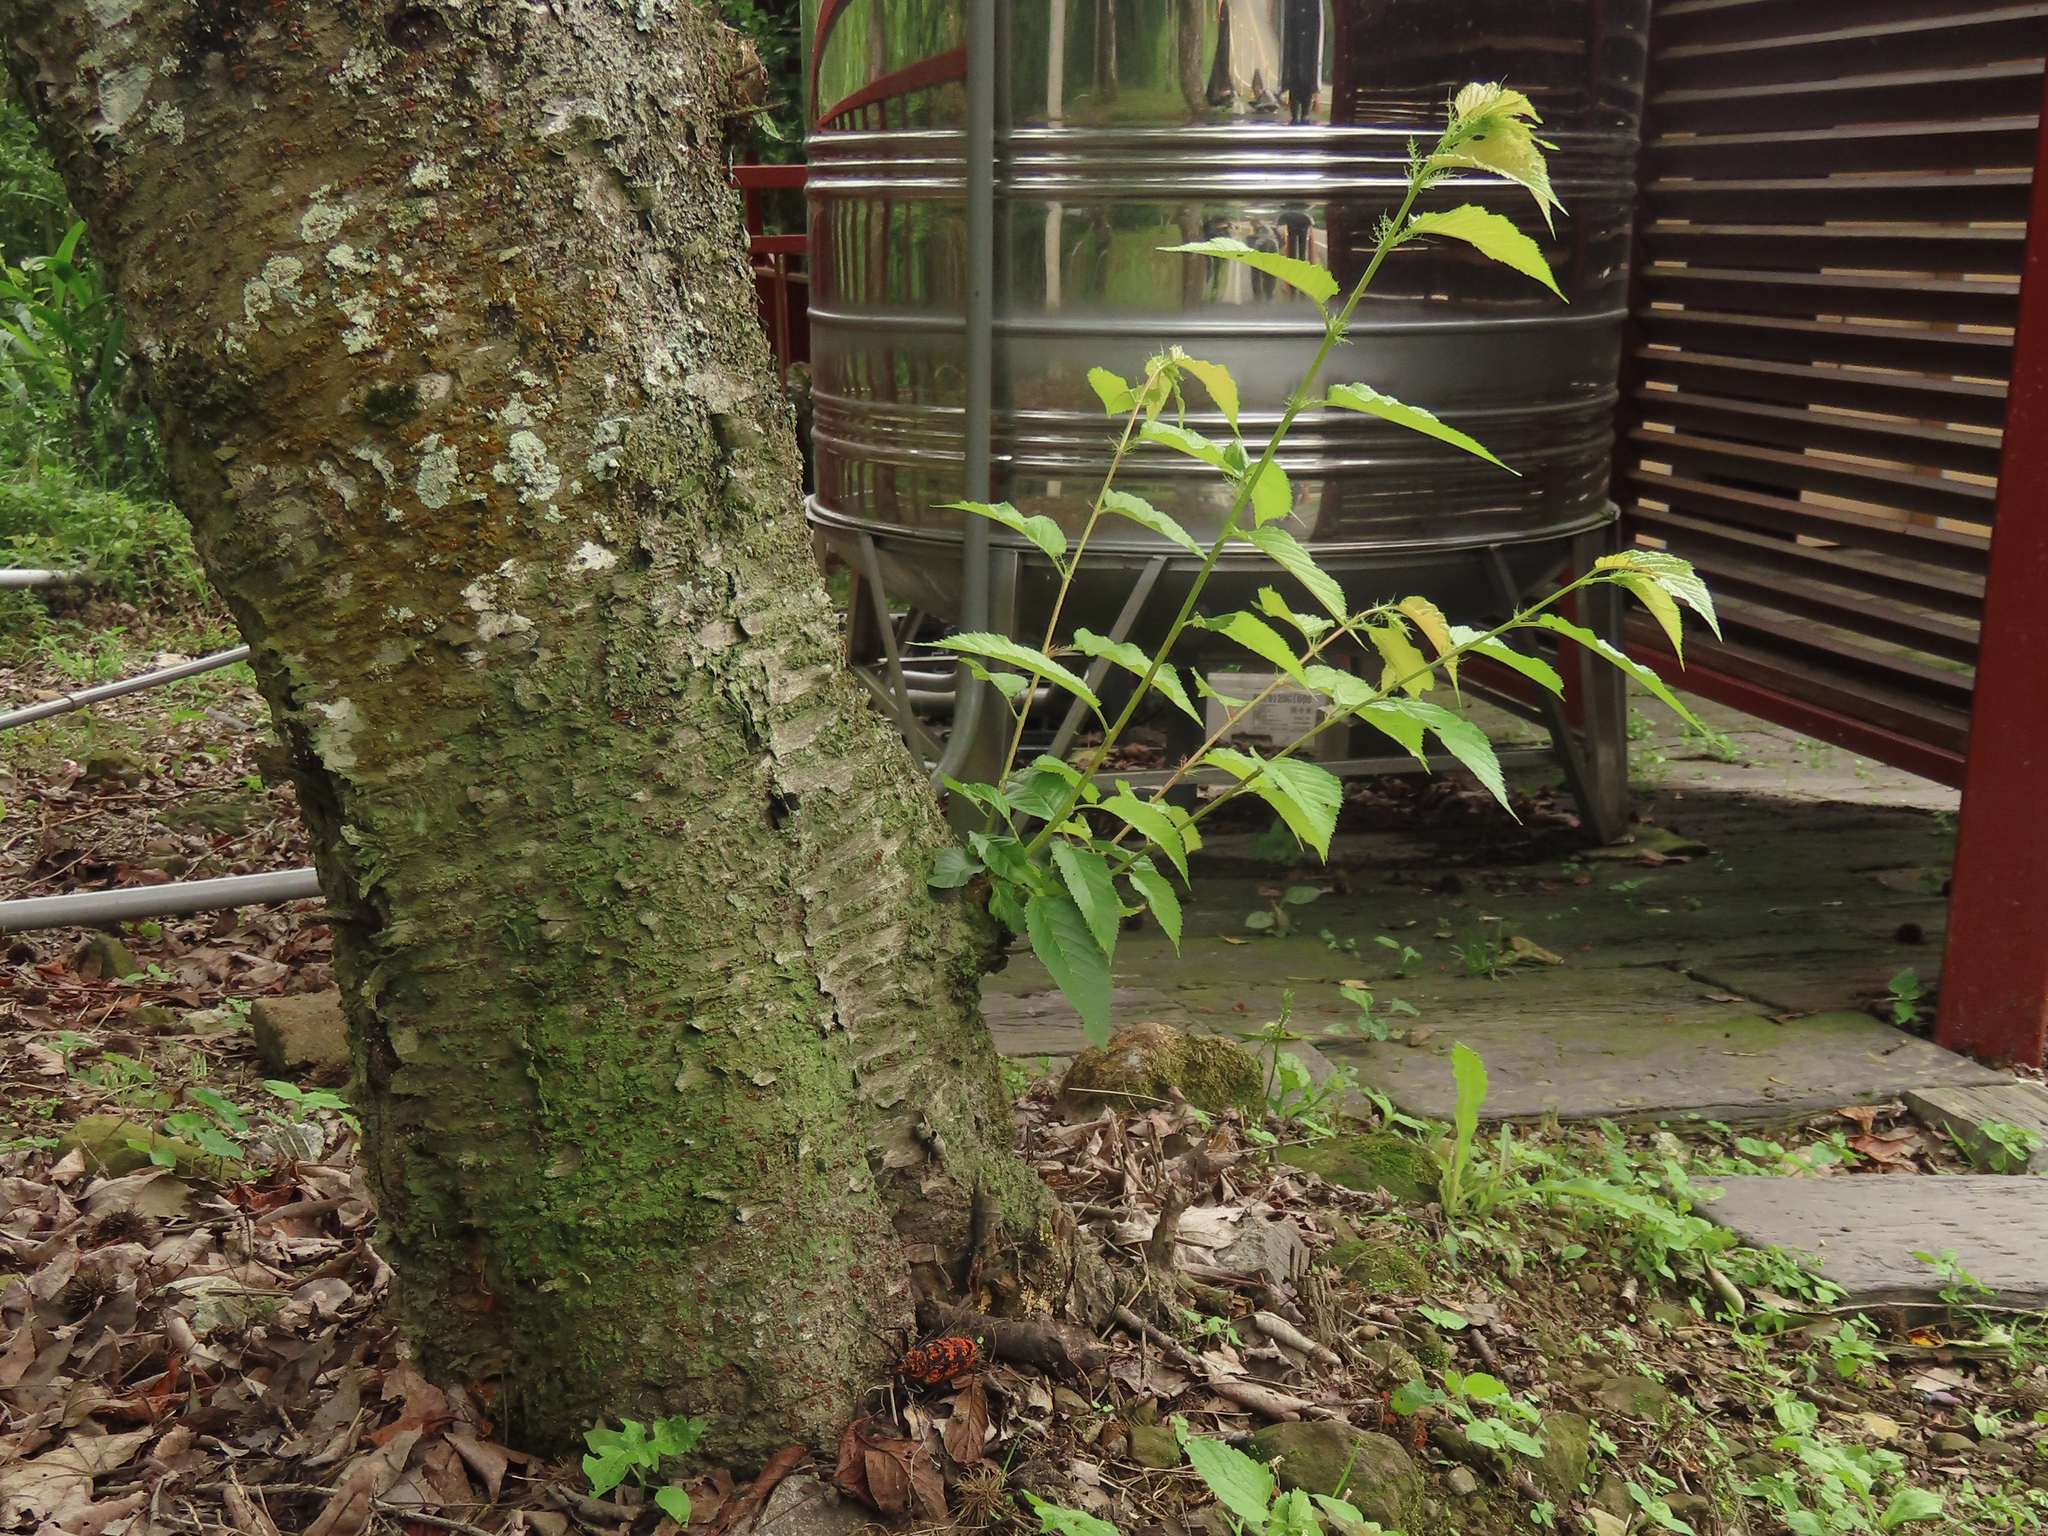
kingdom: Animalia
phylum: Arthropoda
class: Insecta
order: Coleoptera
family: Cerambycidae
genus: Hemadius
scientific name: Hemadius oenochrous
